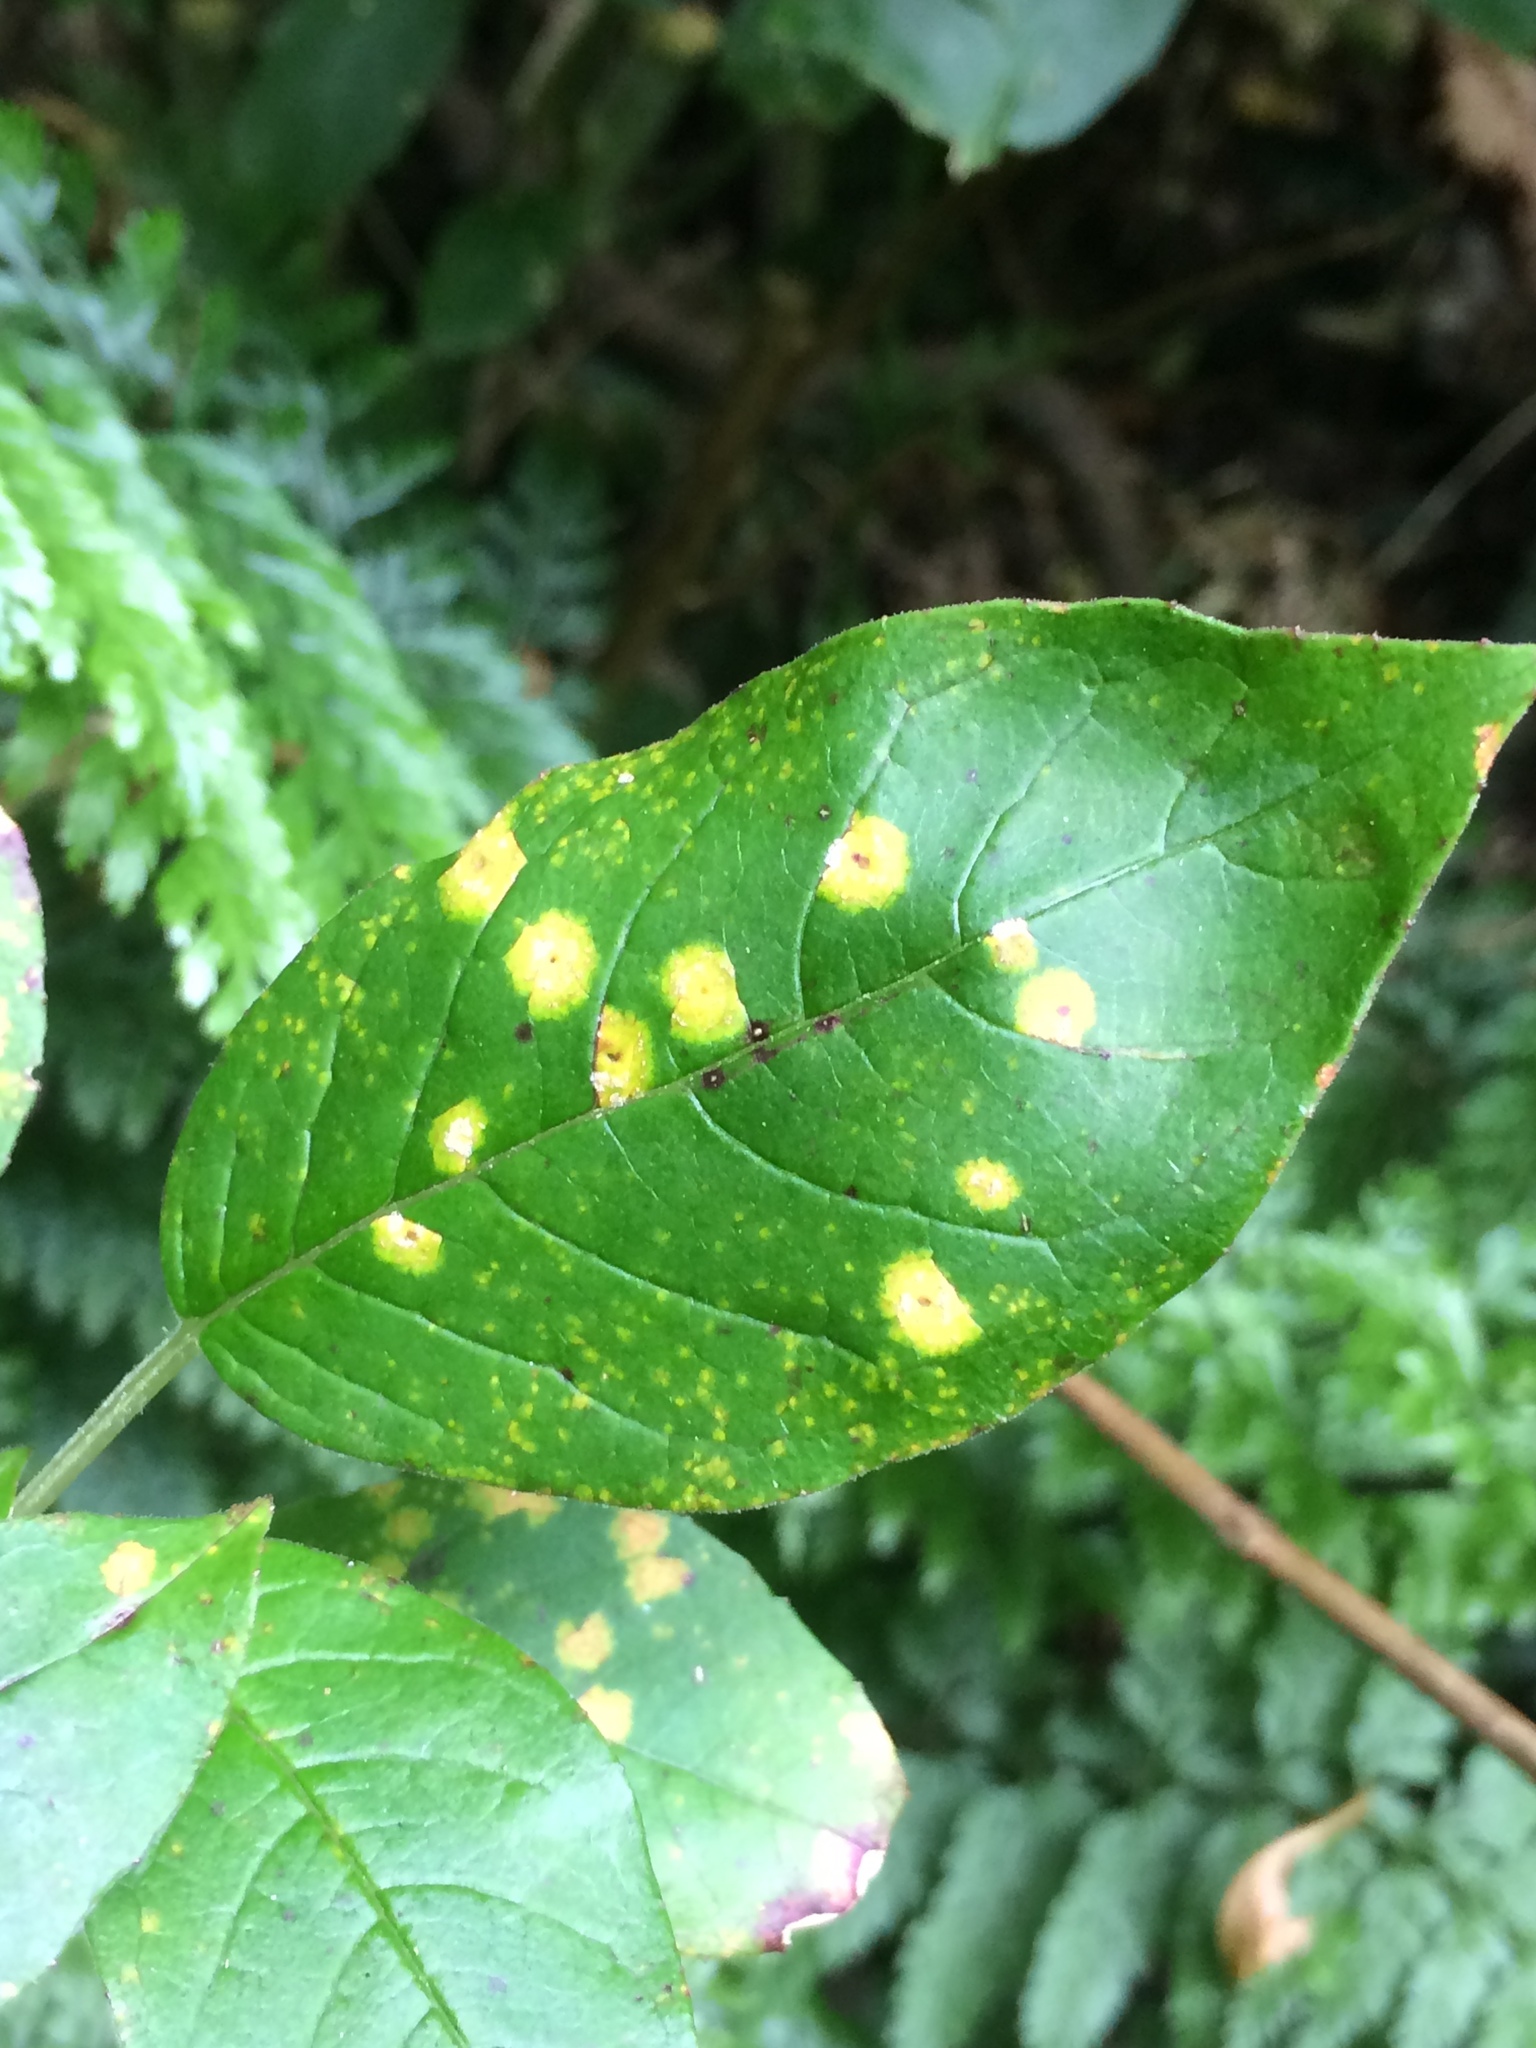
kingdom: Fungi
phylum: Basidiomycota
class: Pucciniomycetes
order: Pucciniales
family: Mikronegeriaceae
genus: Mikronegeria
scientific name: Mikronegeria fuchsiae
